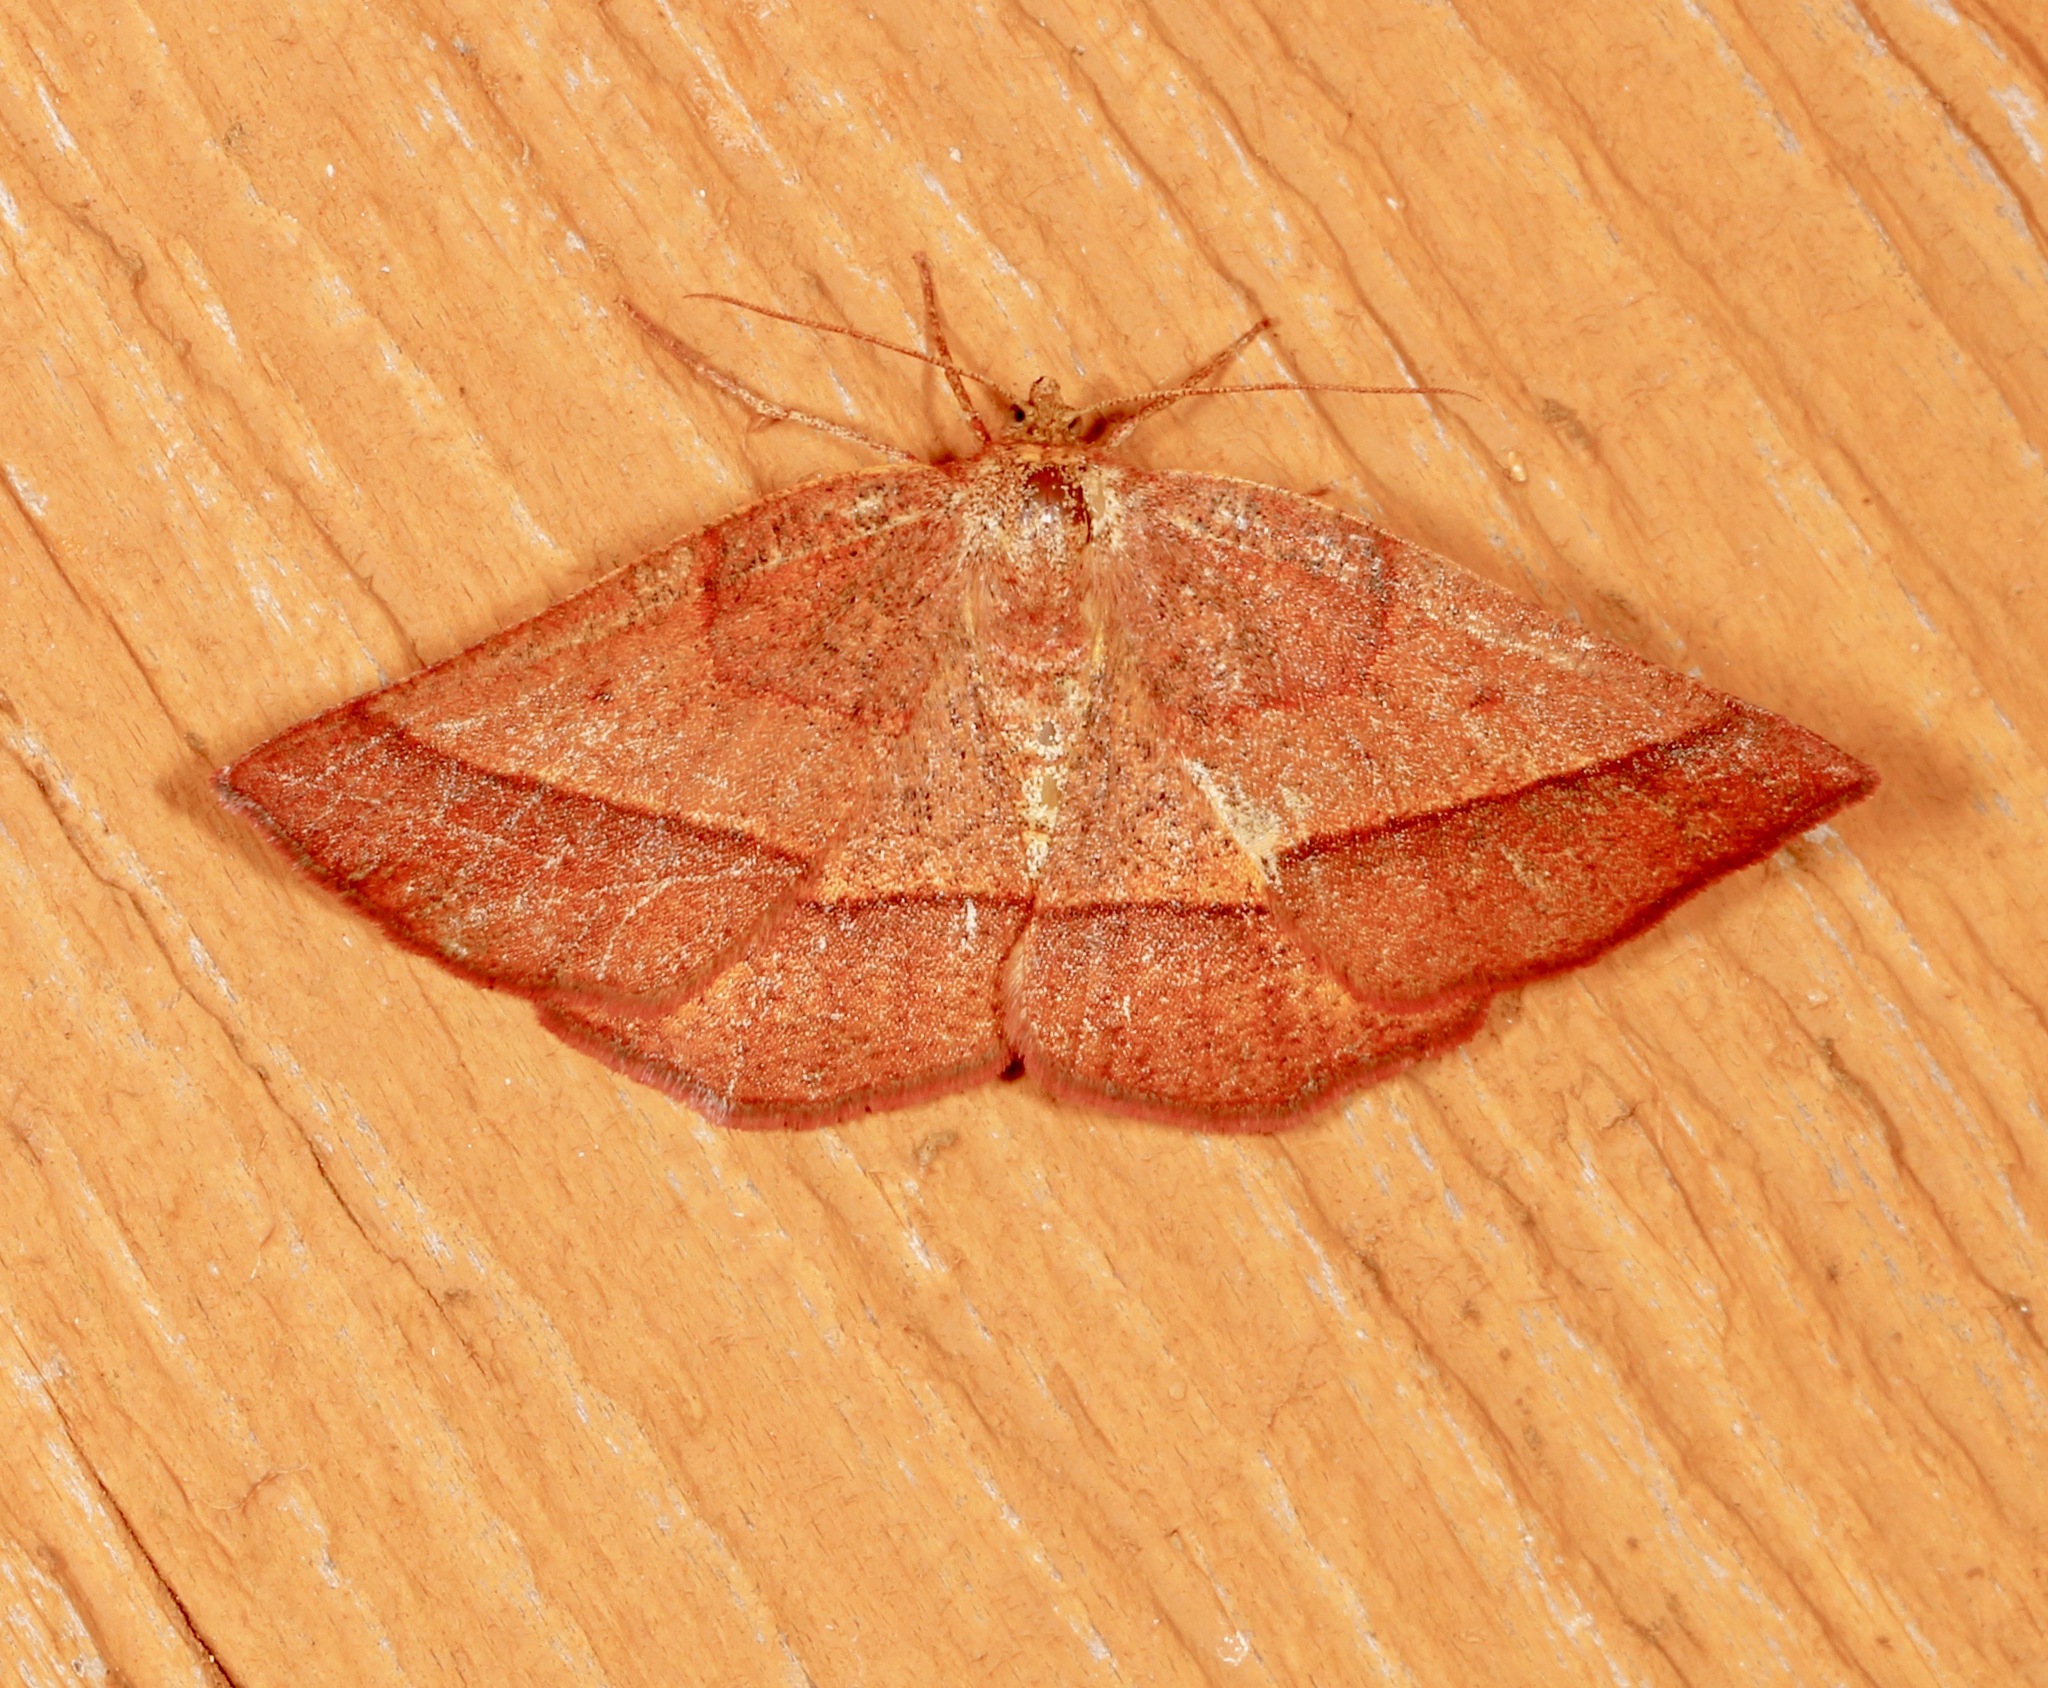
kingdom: Animalia
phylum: Arthropoda
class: Insecta
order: Lepidoptera
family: Geometridae
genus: Metarranthis
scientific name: Metarranthis obfirmaria
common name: Yellow-washed metarranthis
